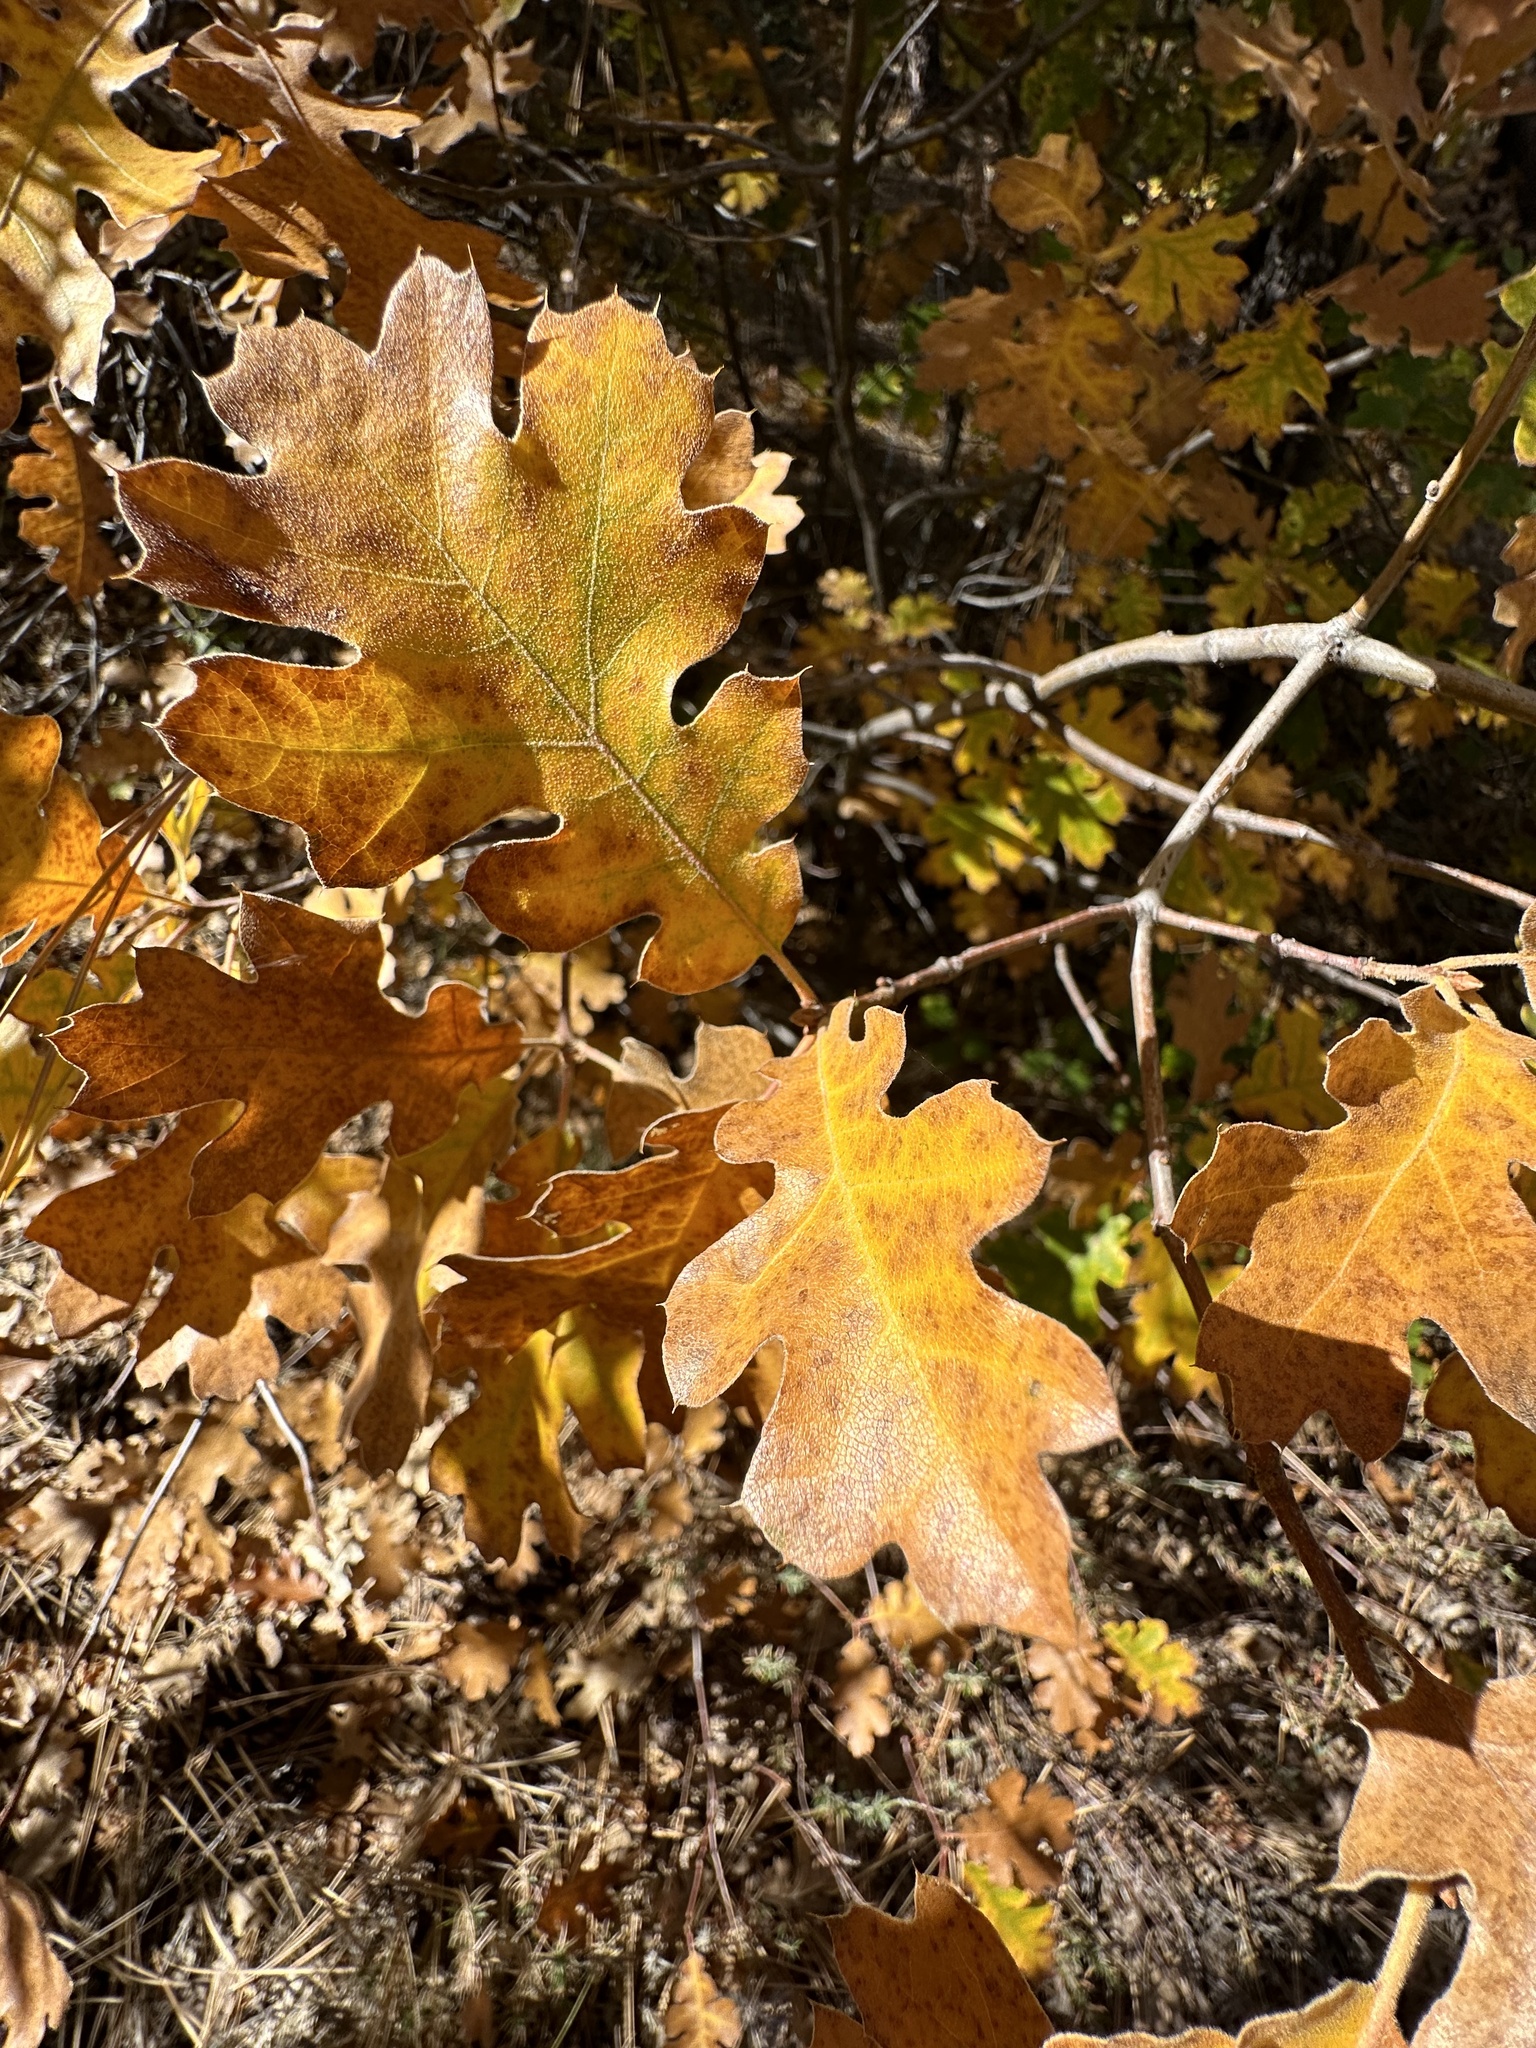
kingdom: Plantae
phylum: Tracheophyta
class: Magnoliopsida
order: Fagales
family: Fagaceae
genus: Quercus
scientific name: Quercus kelloggii
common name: California black oak
